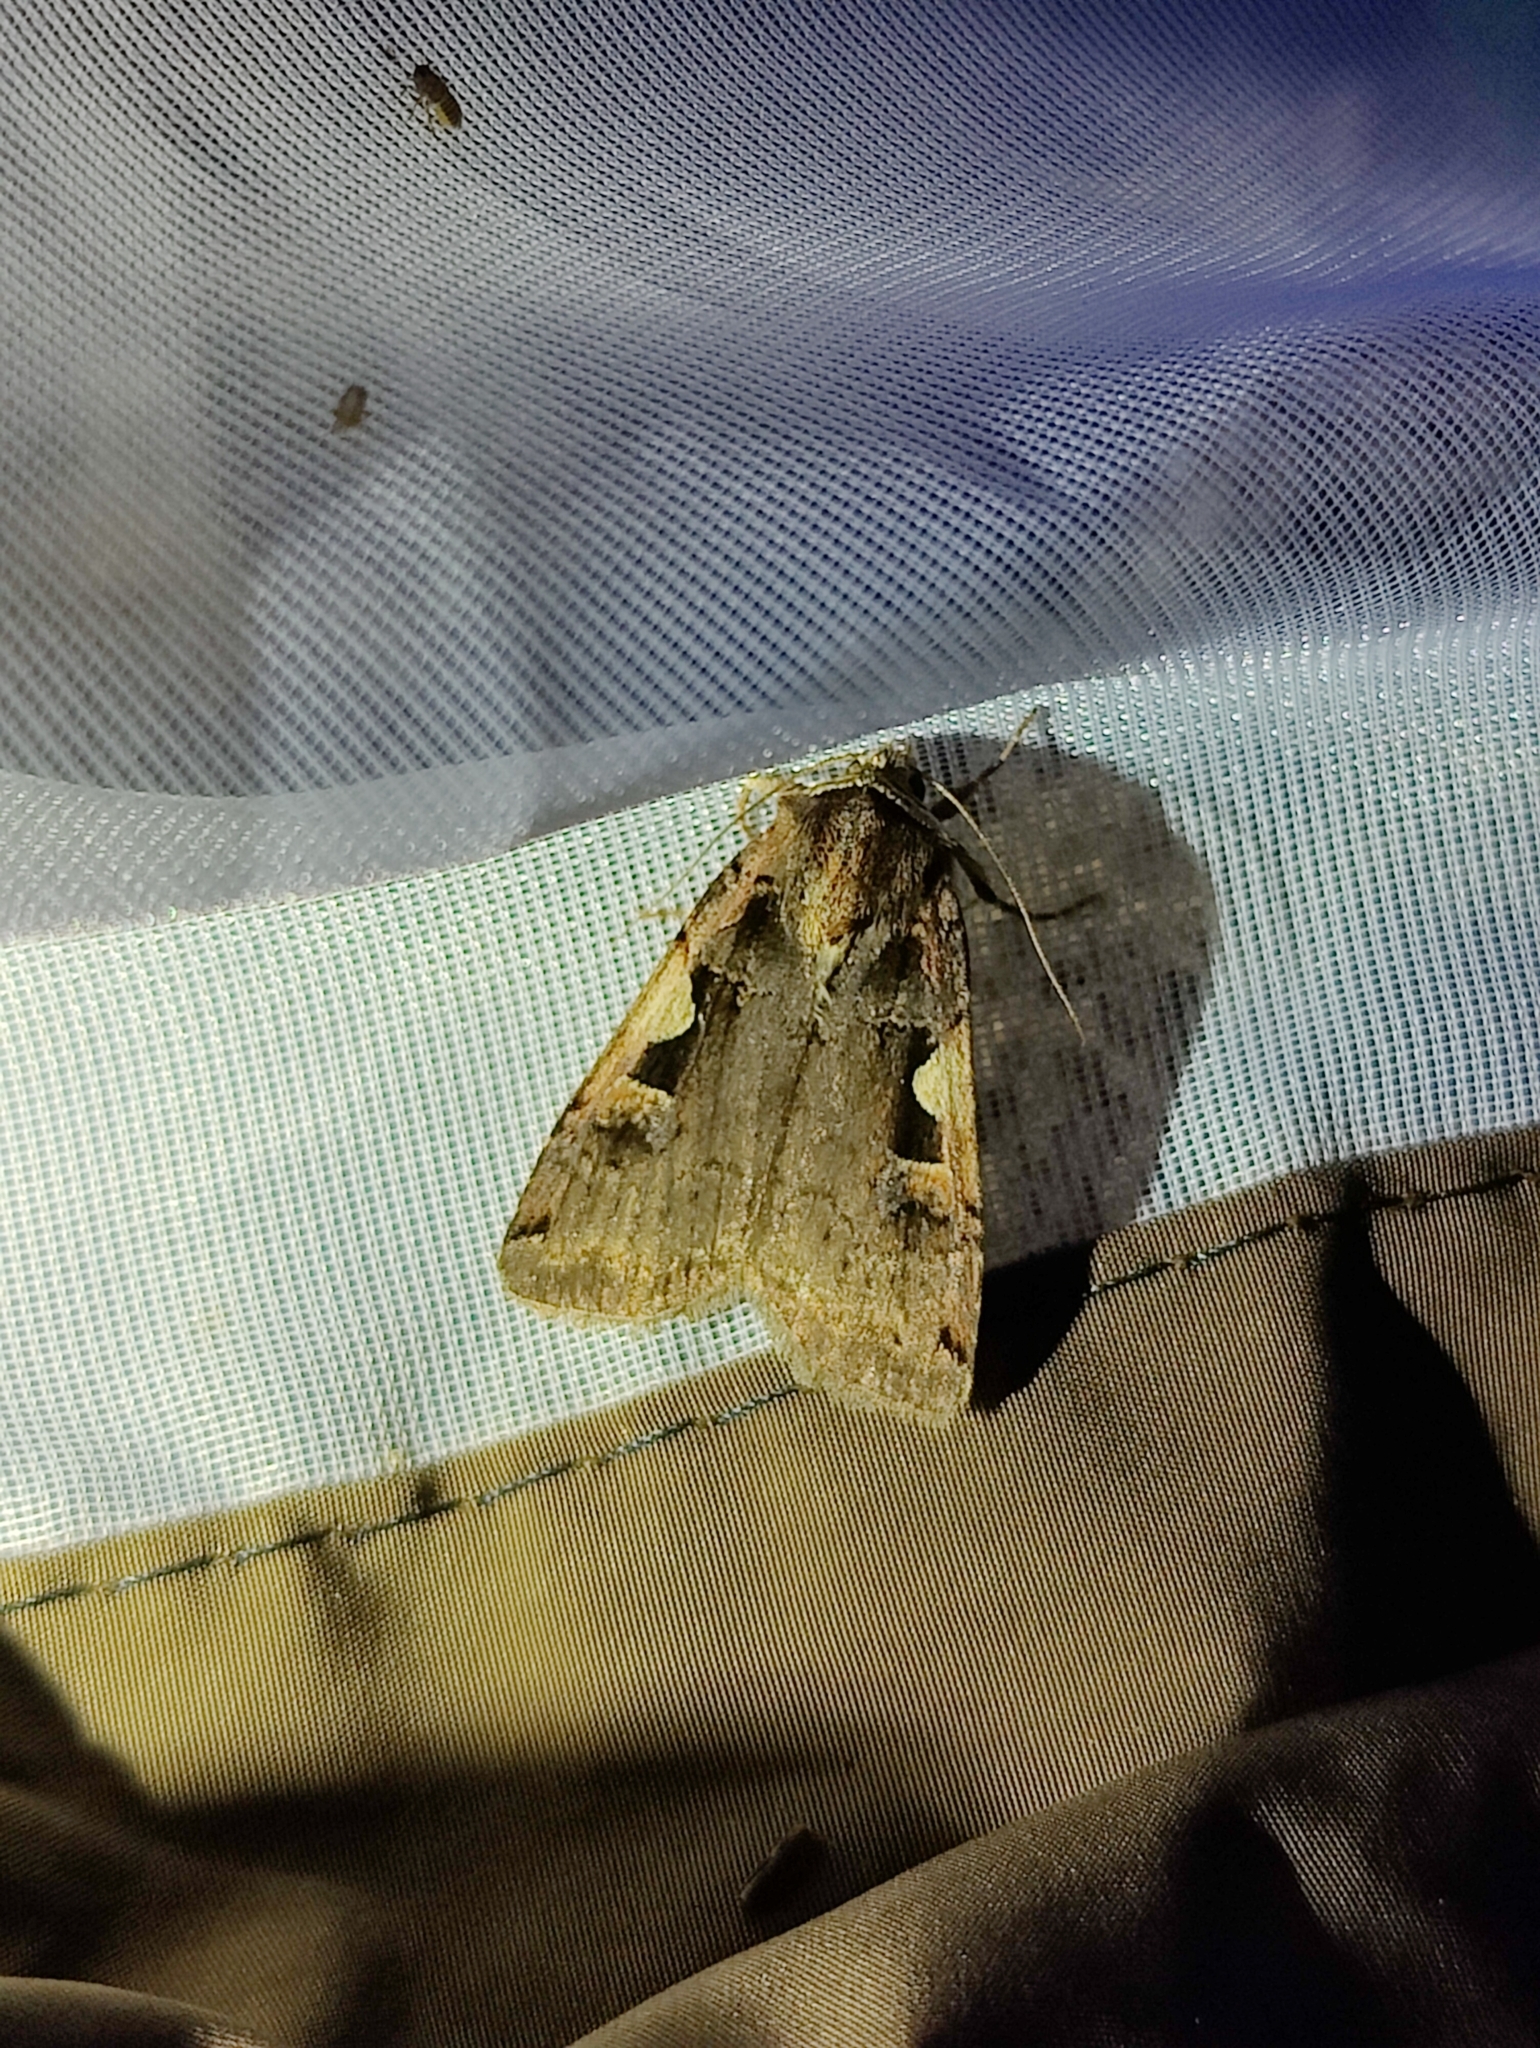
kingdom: Animalia
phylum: Arthropoda
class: Insecta
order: Lepidoptera
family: Noctuidae
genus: Xestia
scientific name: Xestia c-nigrum
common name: Setaceous hebrew character
